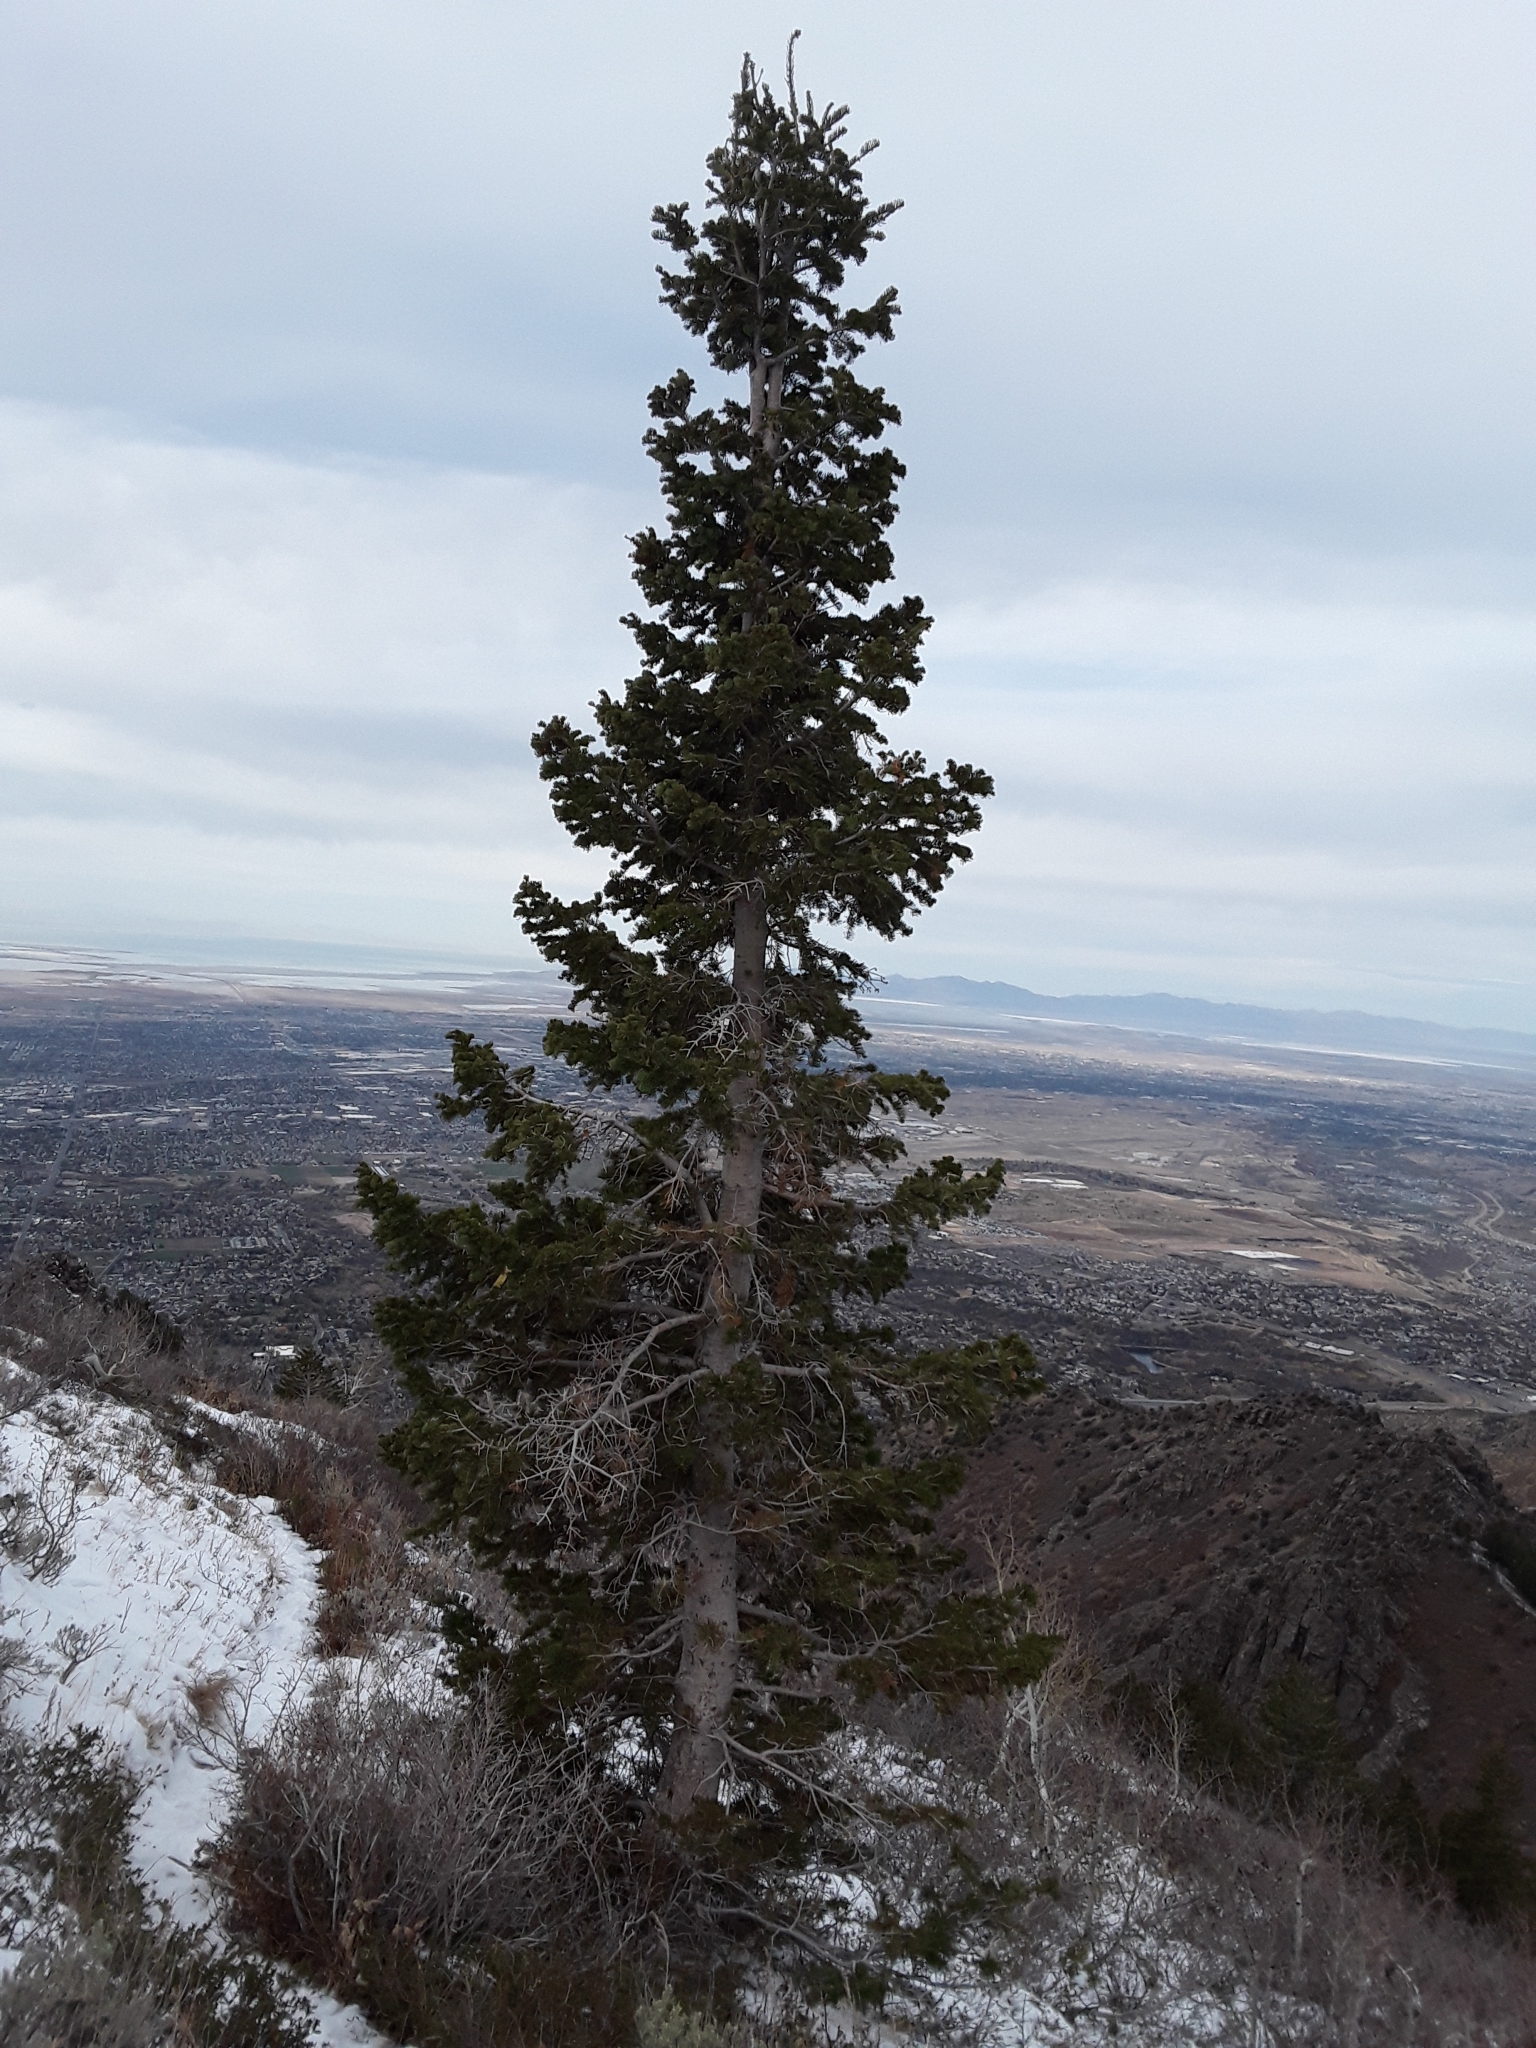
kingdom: Plantae
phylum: Tracheophyta
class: Pinopsida
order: Pinales
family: Pinaceae
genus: Abies
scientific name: Abies lasiocarpa
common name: Subalpine fir
